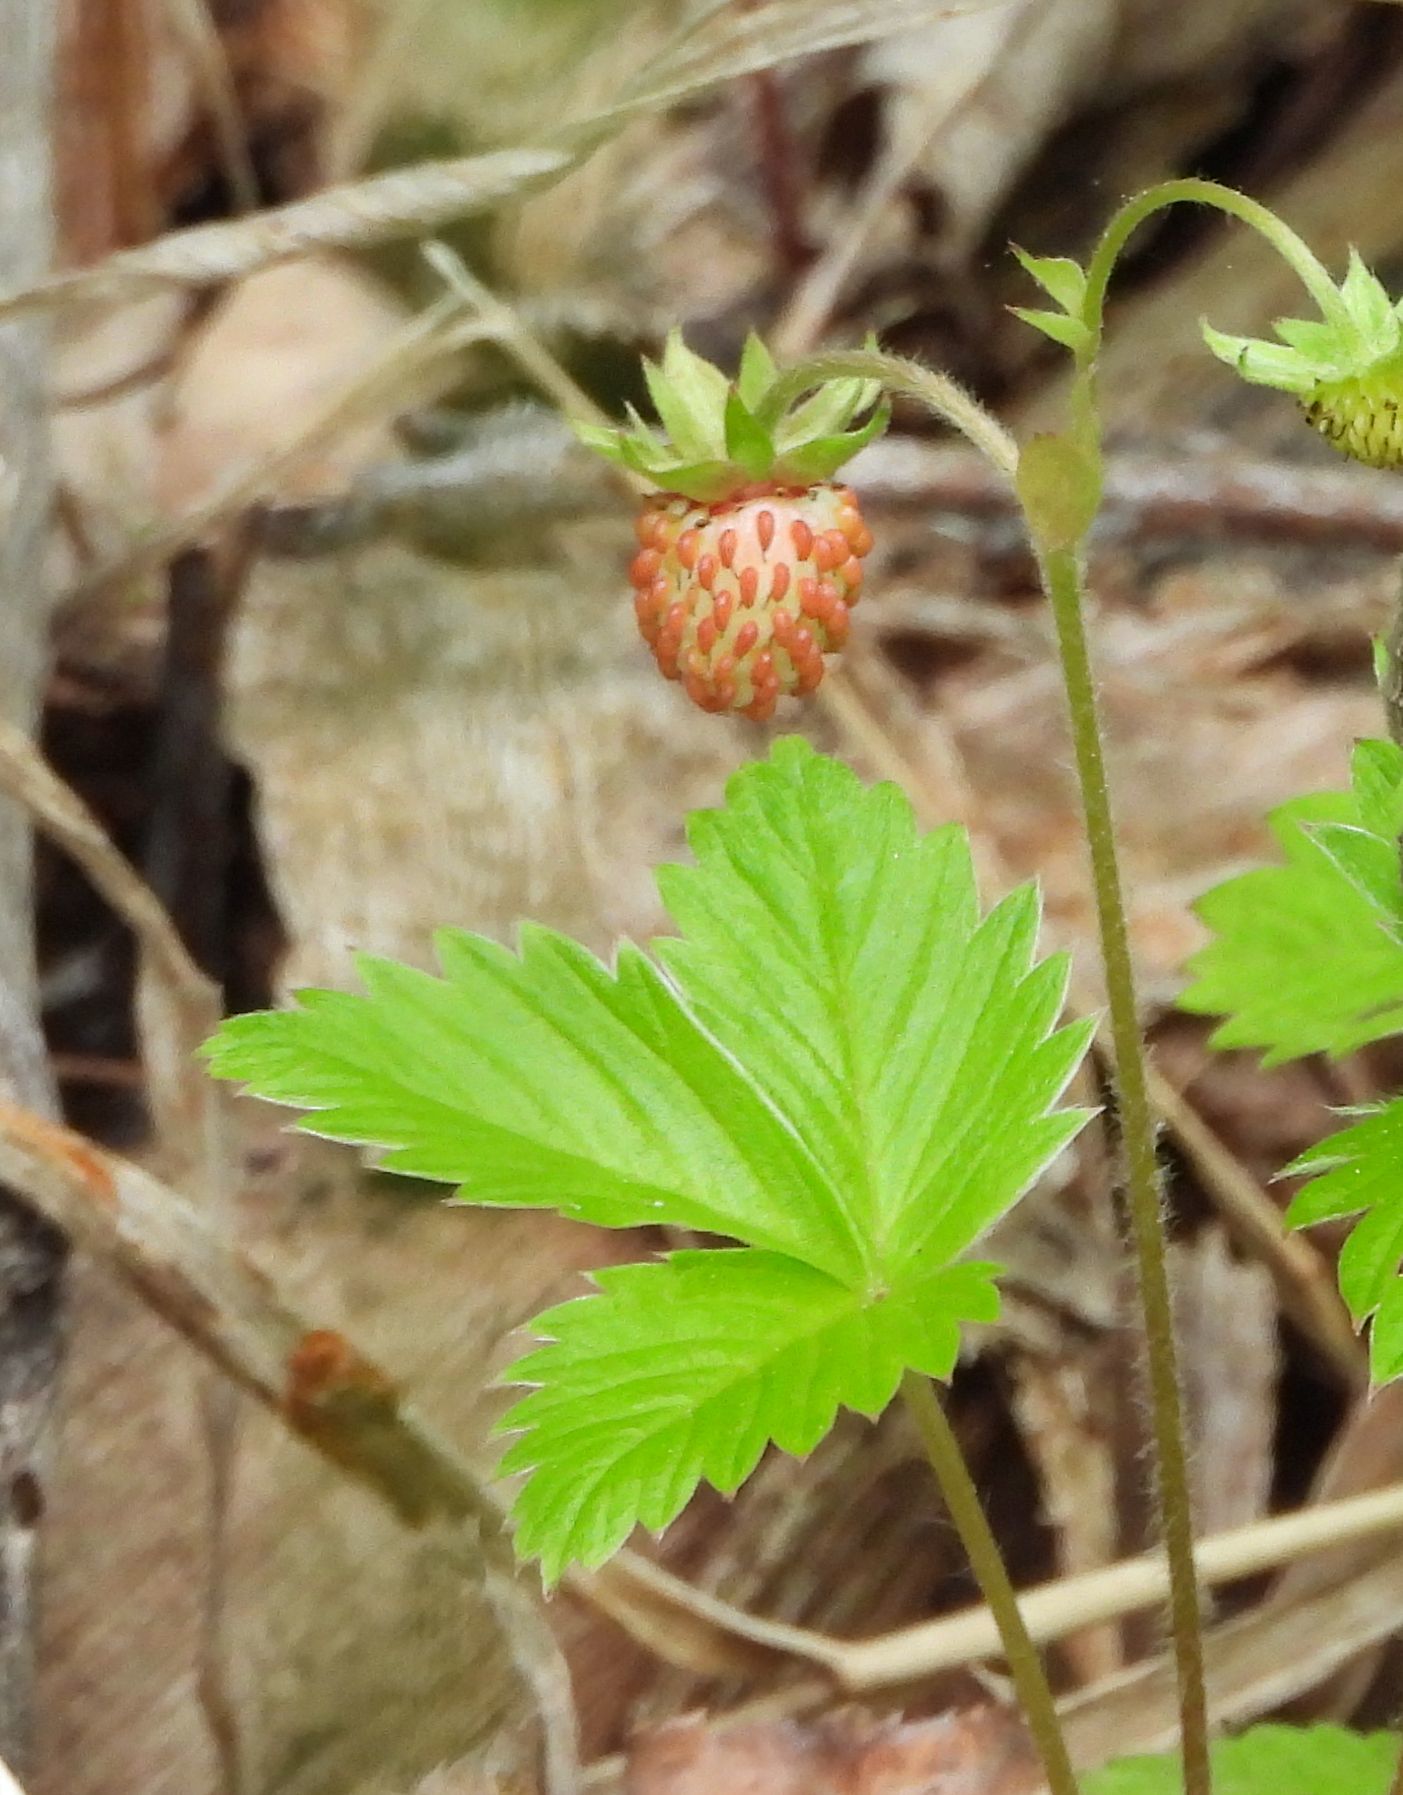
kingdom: Plantae
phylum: Tracheophyta
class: Magnoliopsida
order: Rosales
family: Rosaceae
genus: Fragaria
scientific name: Fragaria vesca
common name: Wild strawberry
